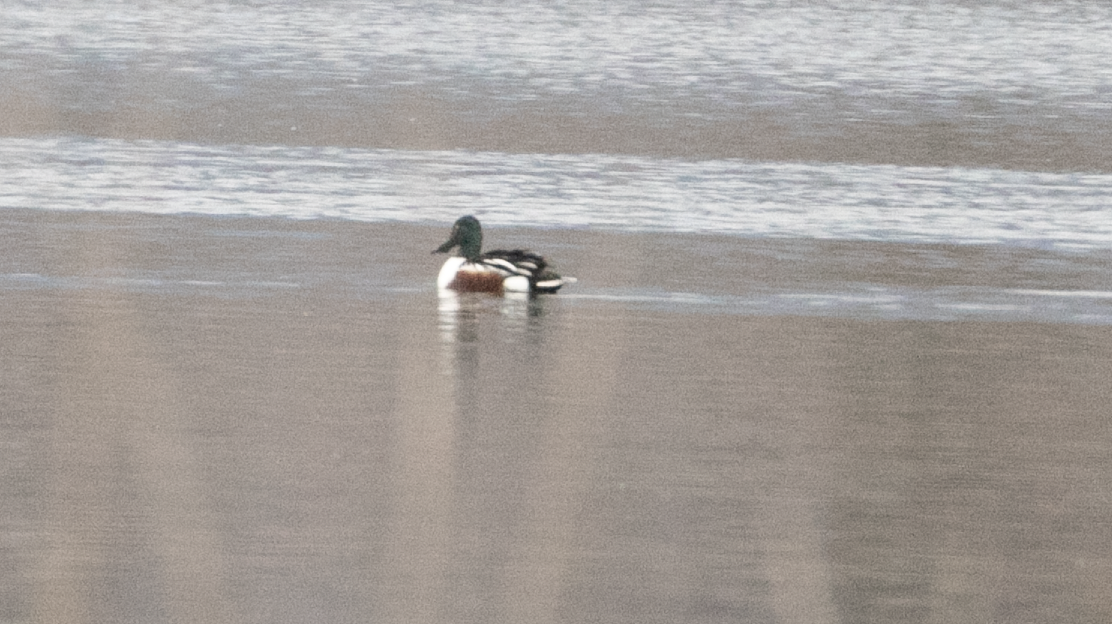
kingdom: Animalia
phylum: Chordata
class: Aves
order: Anseriformes
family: Anatidae
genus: Spatula
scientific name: Spatula clypeata
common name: Northern shoveler
